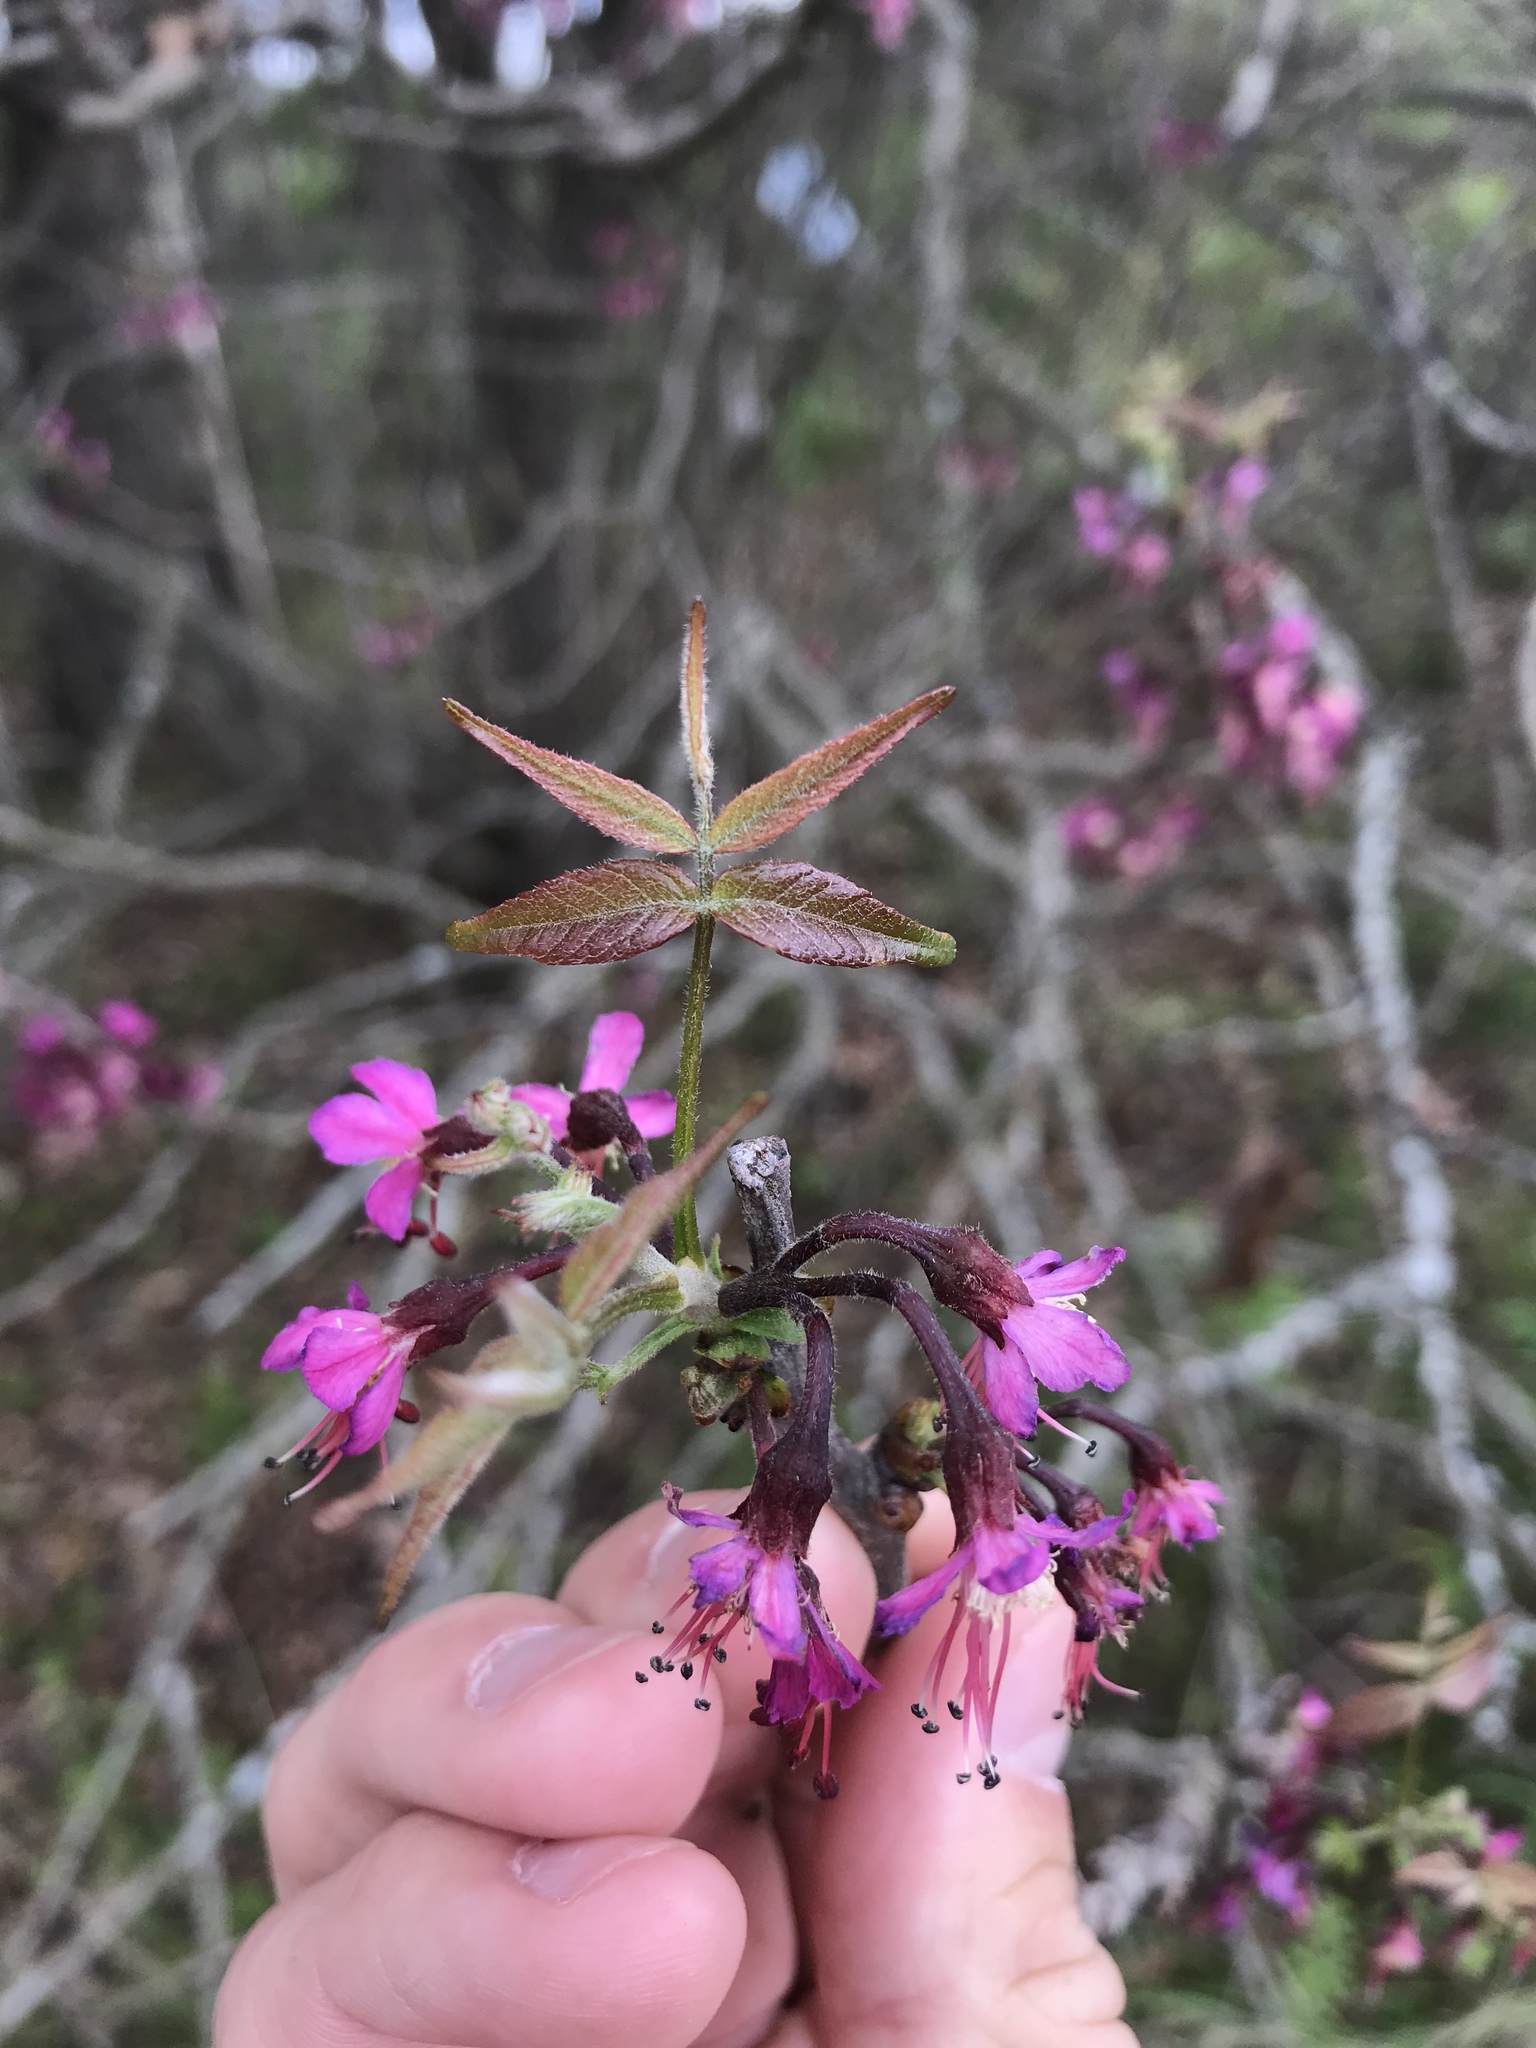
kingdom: Plantae
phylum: Tracheophyta
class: Magnoliopsida
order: Sapindales
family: Sapindaceae
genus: Ungnadia
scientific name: Ungnadia speciosa
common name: Texas-buckeye
